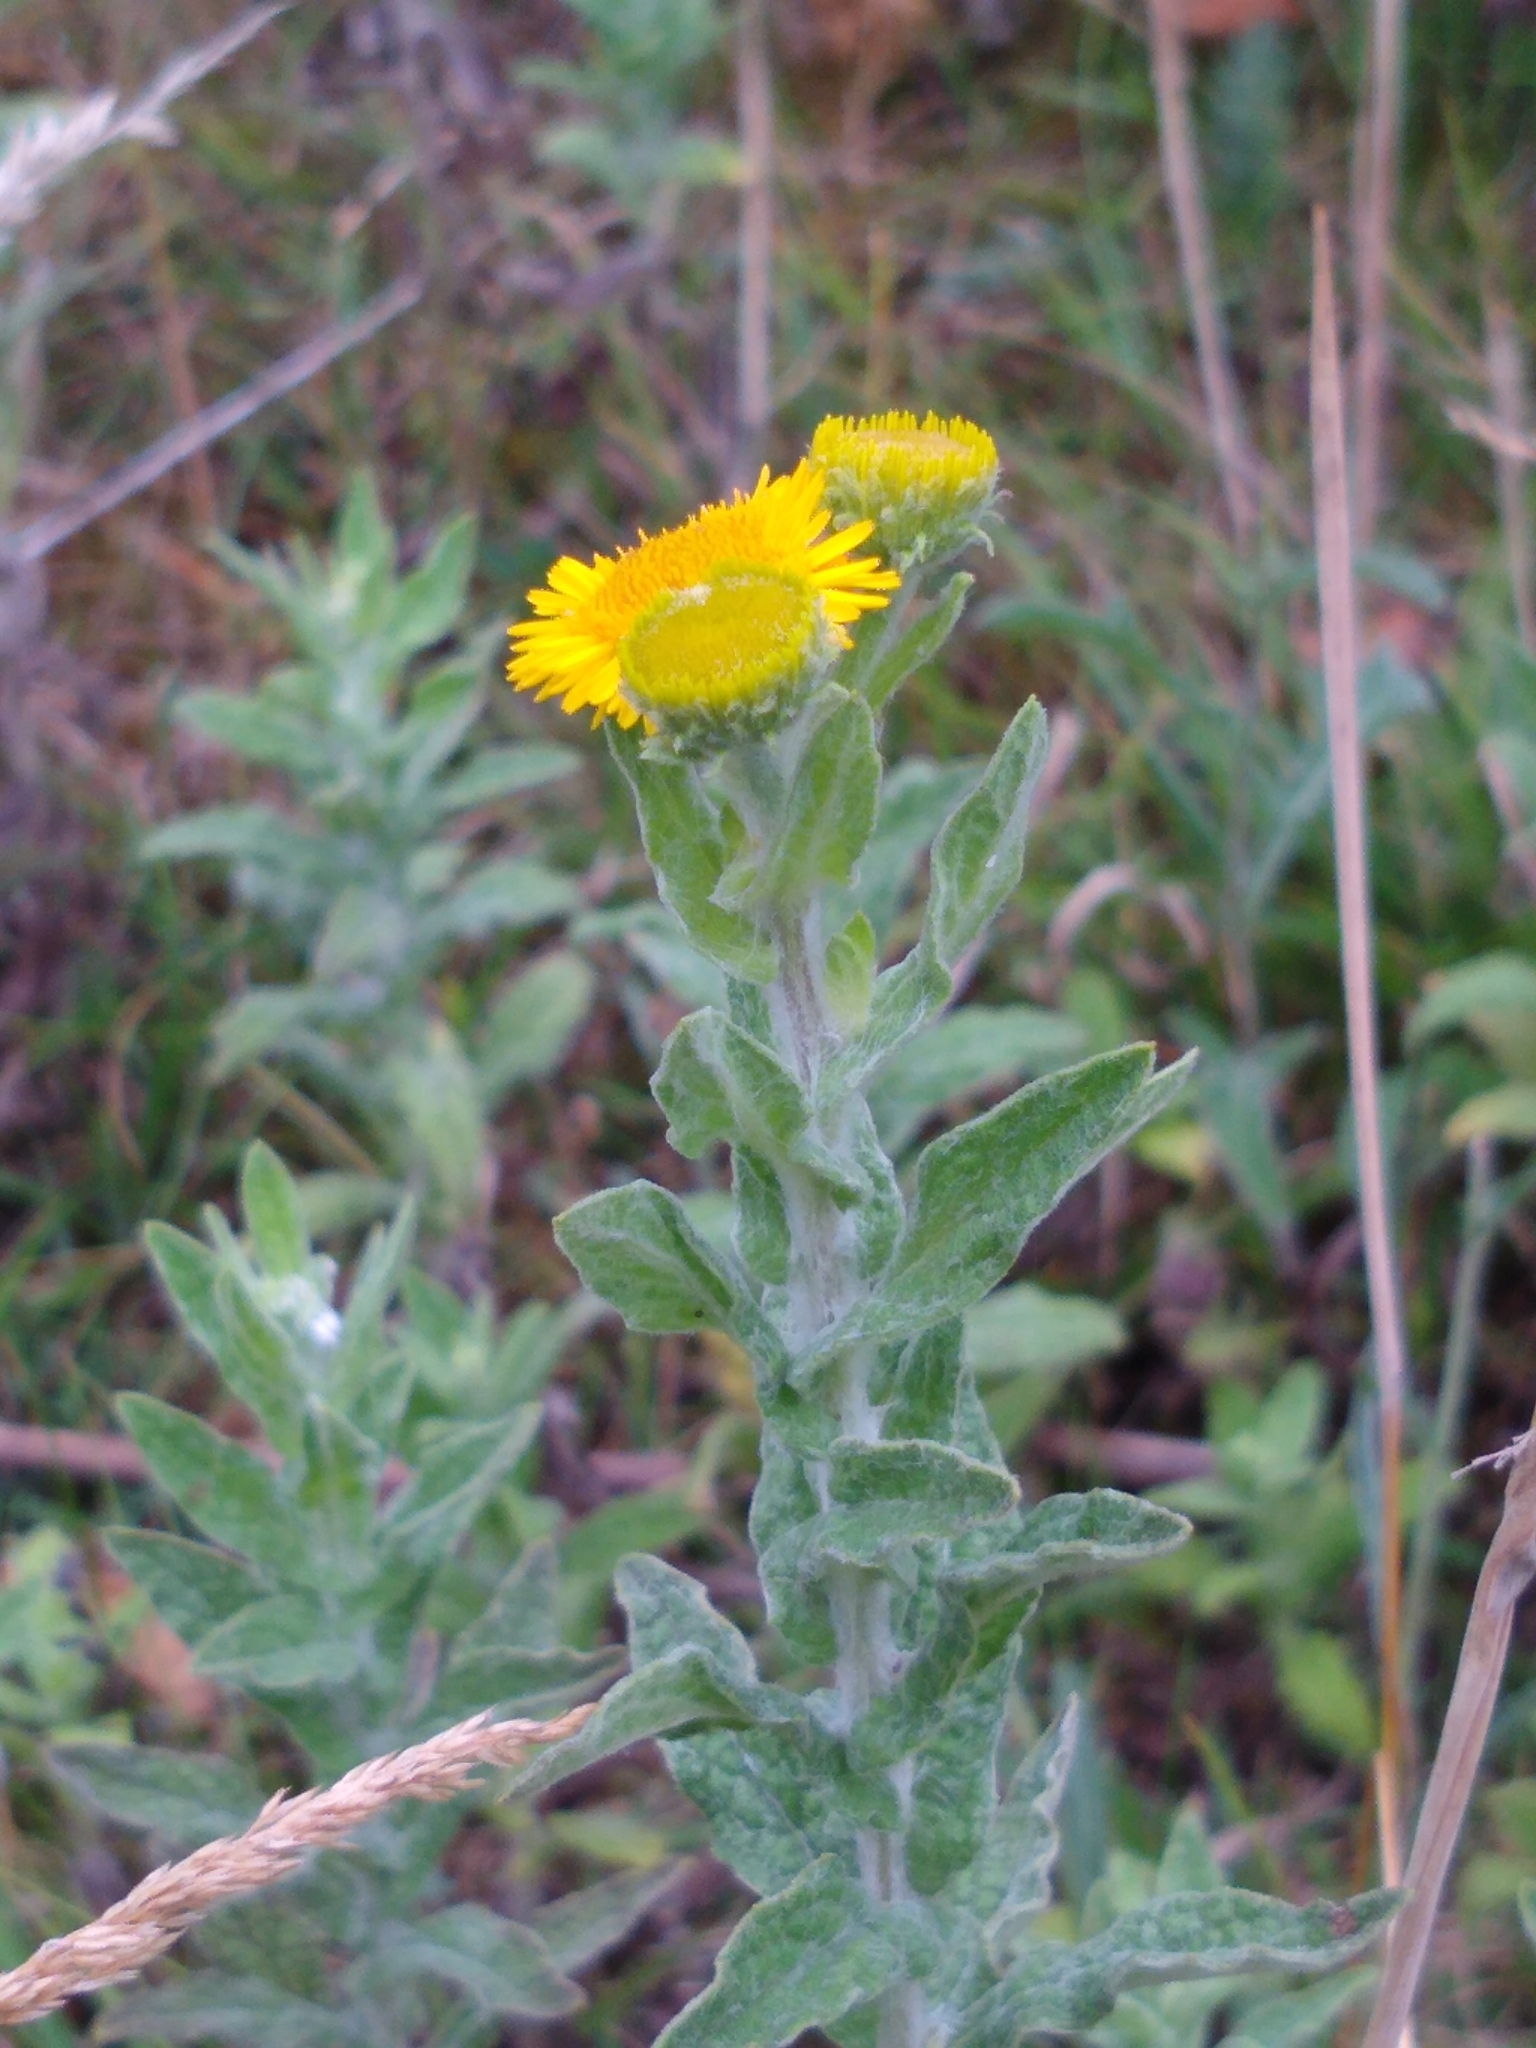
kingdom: Plantae
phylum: Tracheophyta
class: Magnoliopsida
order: Asterales
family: Asteraceae
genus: Pulicaria
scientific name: Pulicaria dysenterica
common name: Common fleabane
